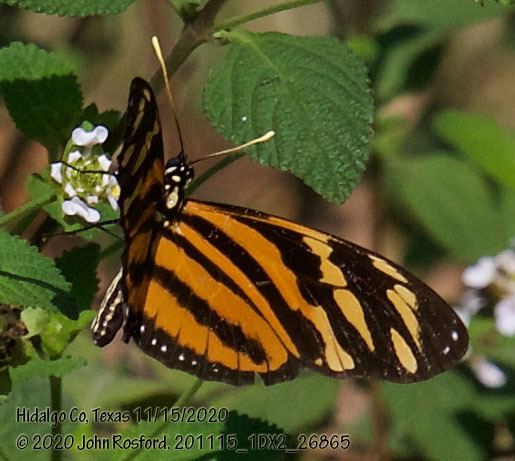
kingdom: Animalia
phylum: Arthropoda
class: Insecta
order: Lepidoptera
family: Nymphalidae
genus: Eueides
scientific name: Eueides isabella
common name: Isabella's longwing
